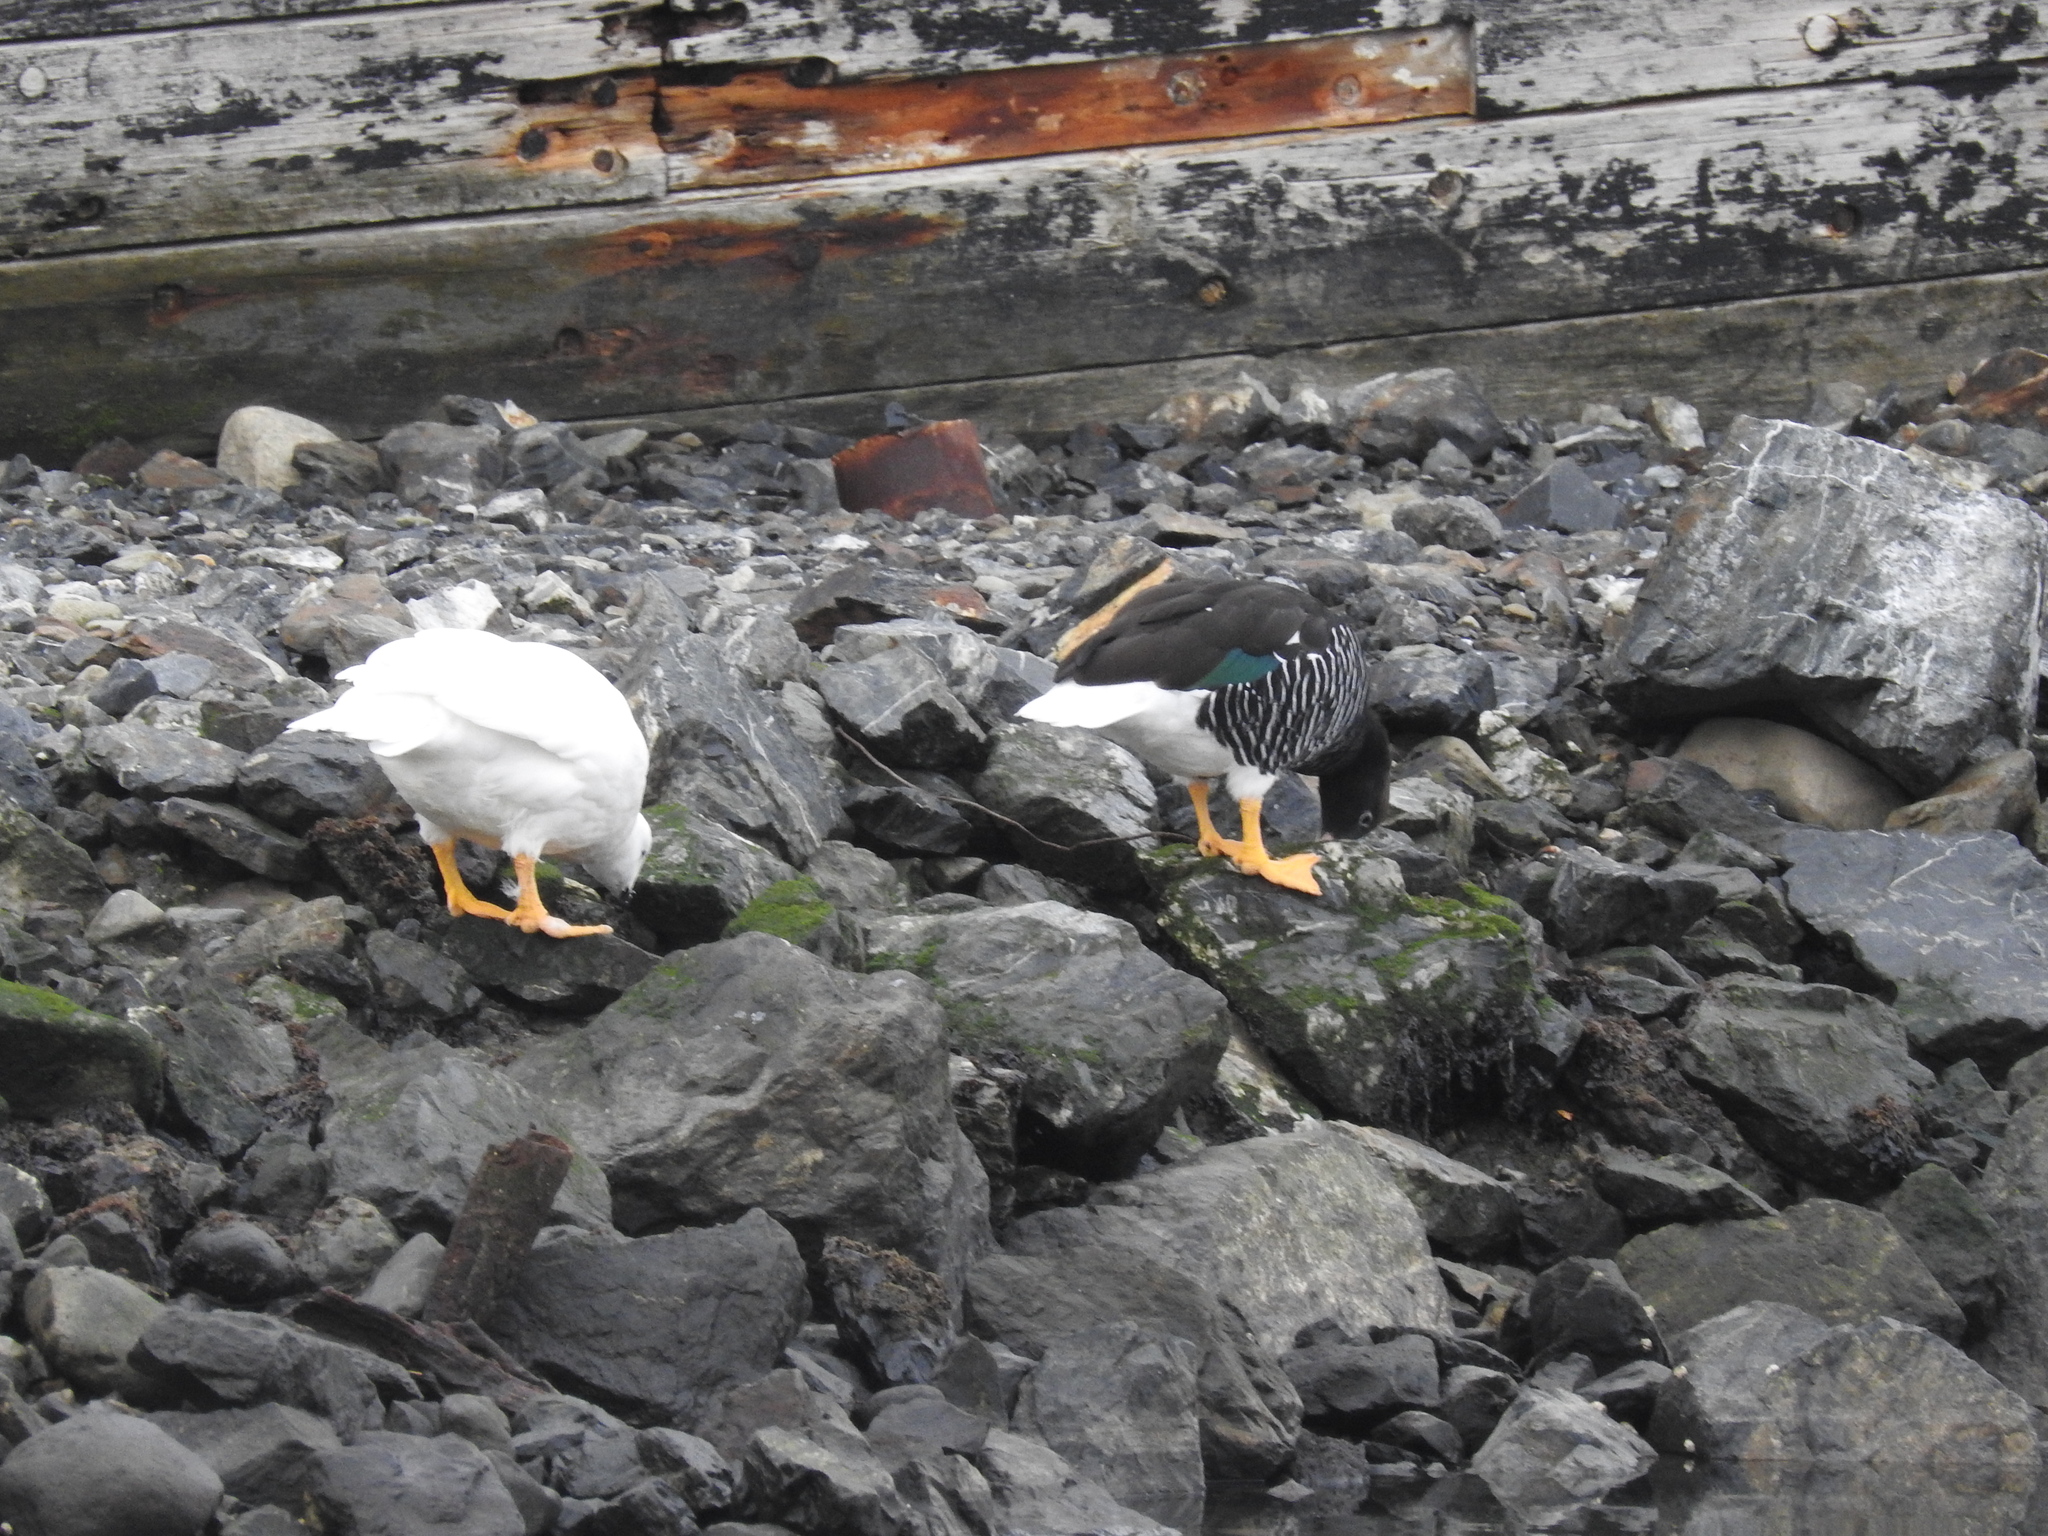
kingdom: Animalia
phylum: Chordata
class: Aves
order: Anseriformes
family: Anatidae
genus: Chloephaga
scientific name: Chloephaga hybrida
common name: Kelp goose
